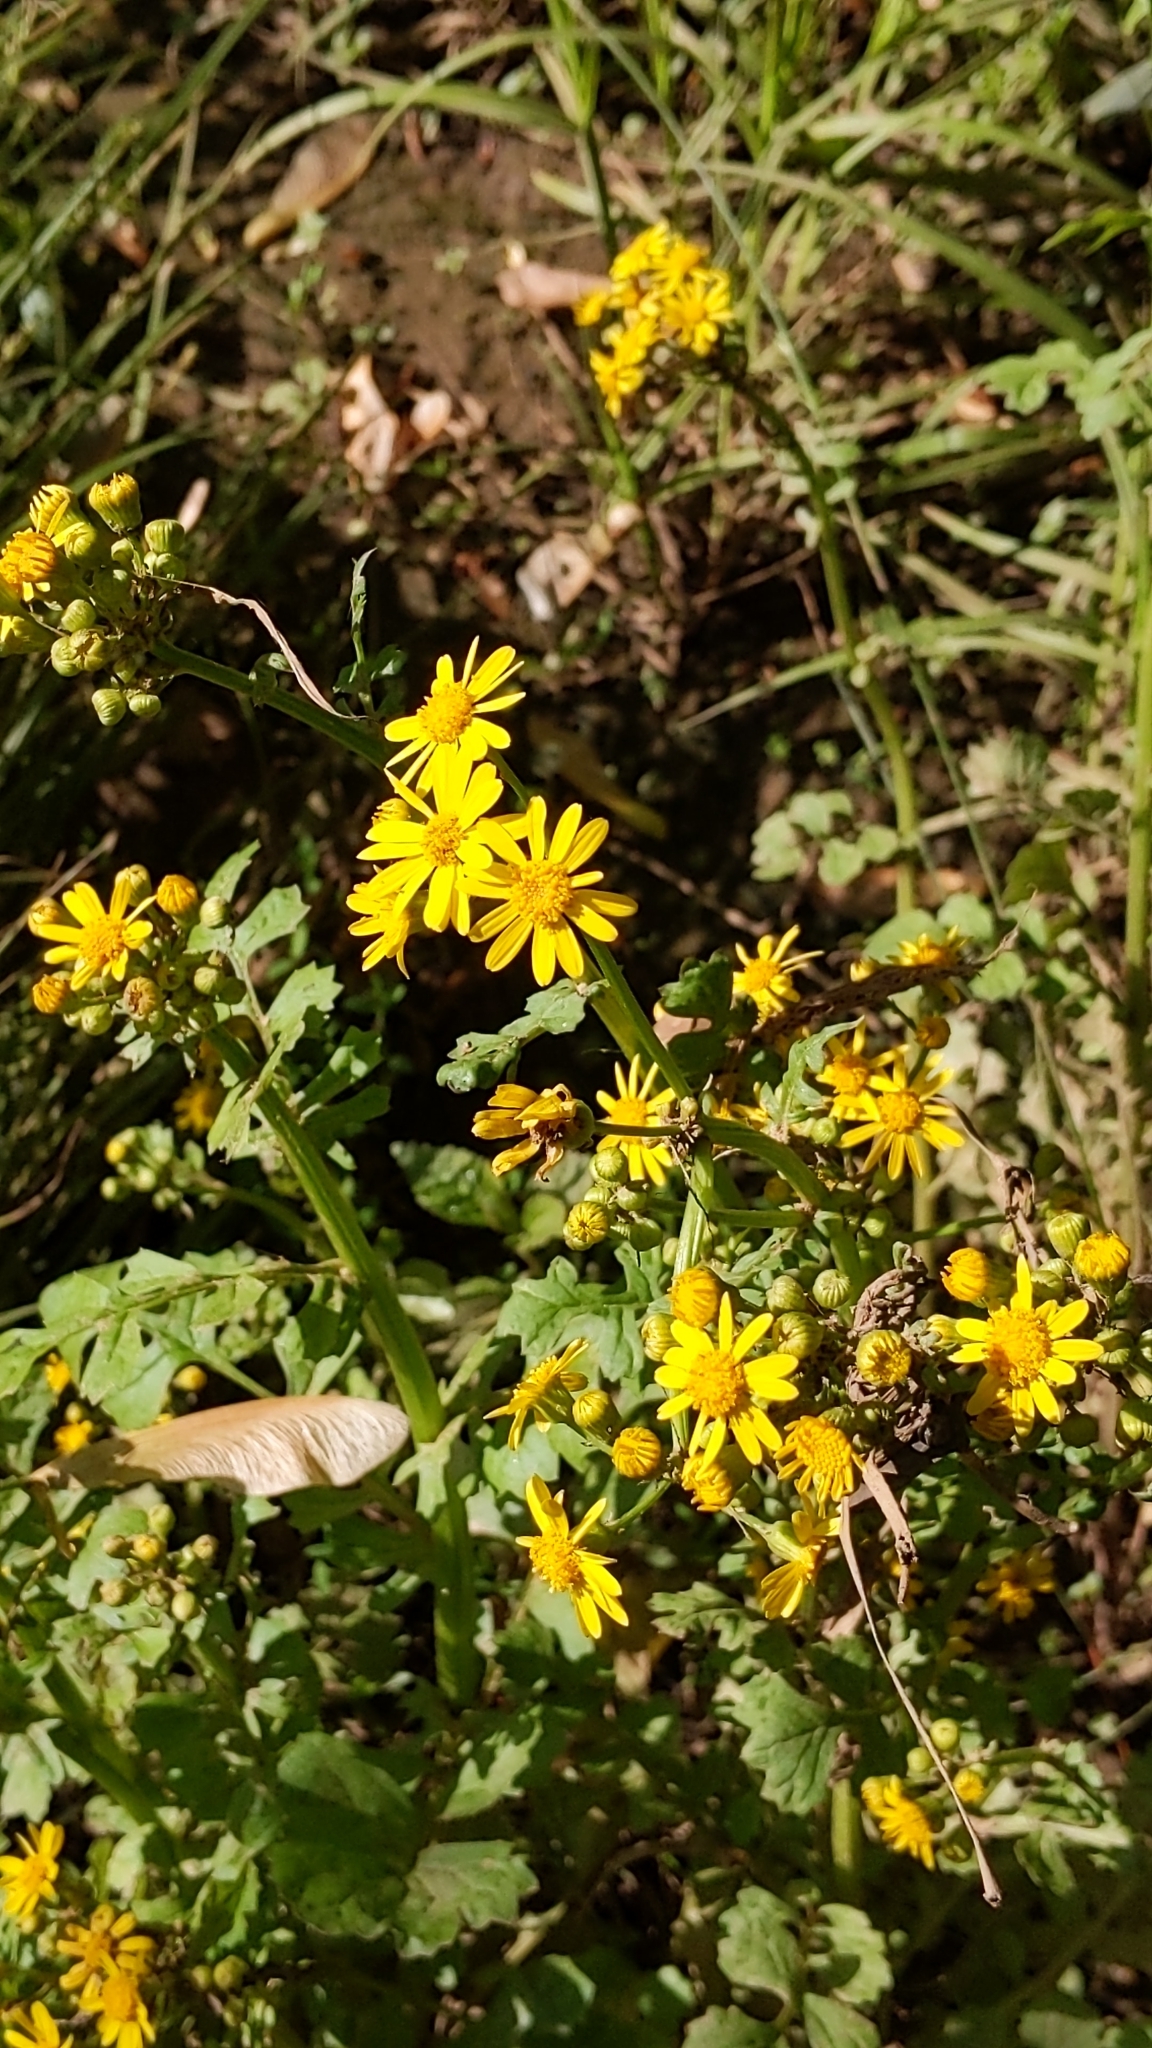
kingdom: Plantae
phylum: Tracheophyta
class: Magnoliopsida
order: Asterales
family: Asteraceae
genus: Packera
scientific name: Packera glabella
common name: Butterweed
